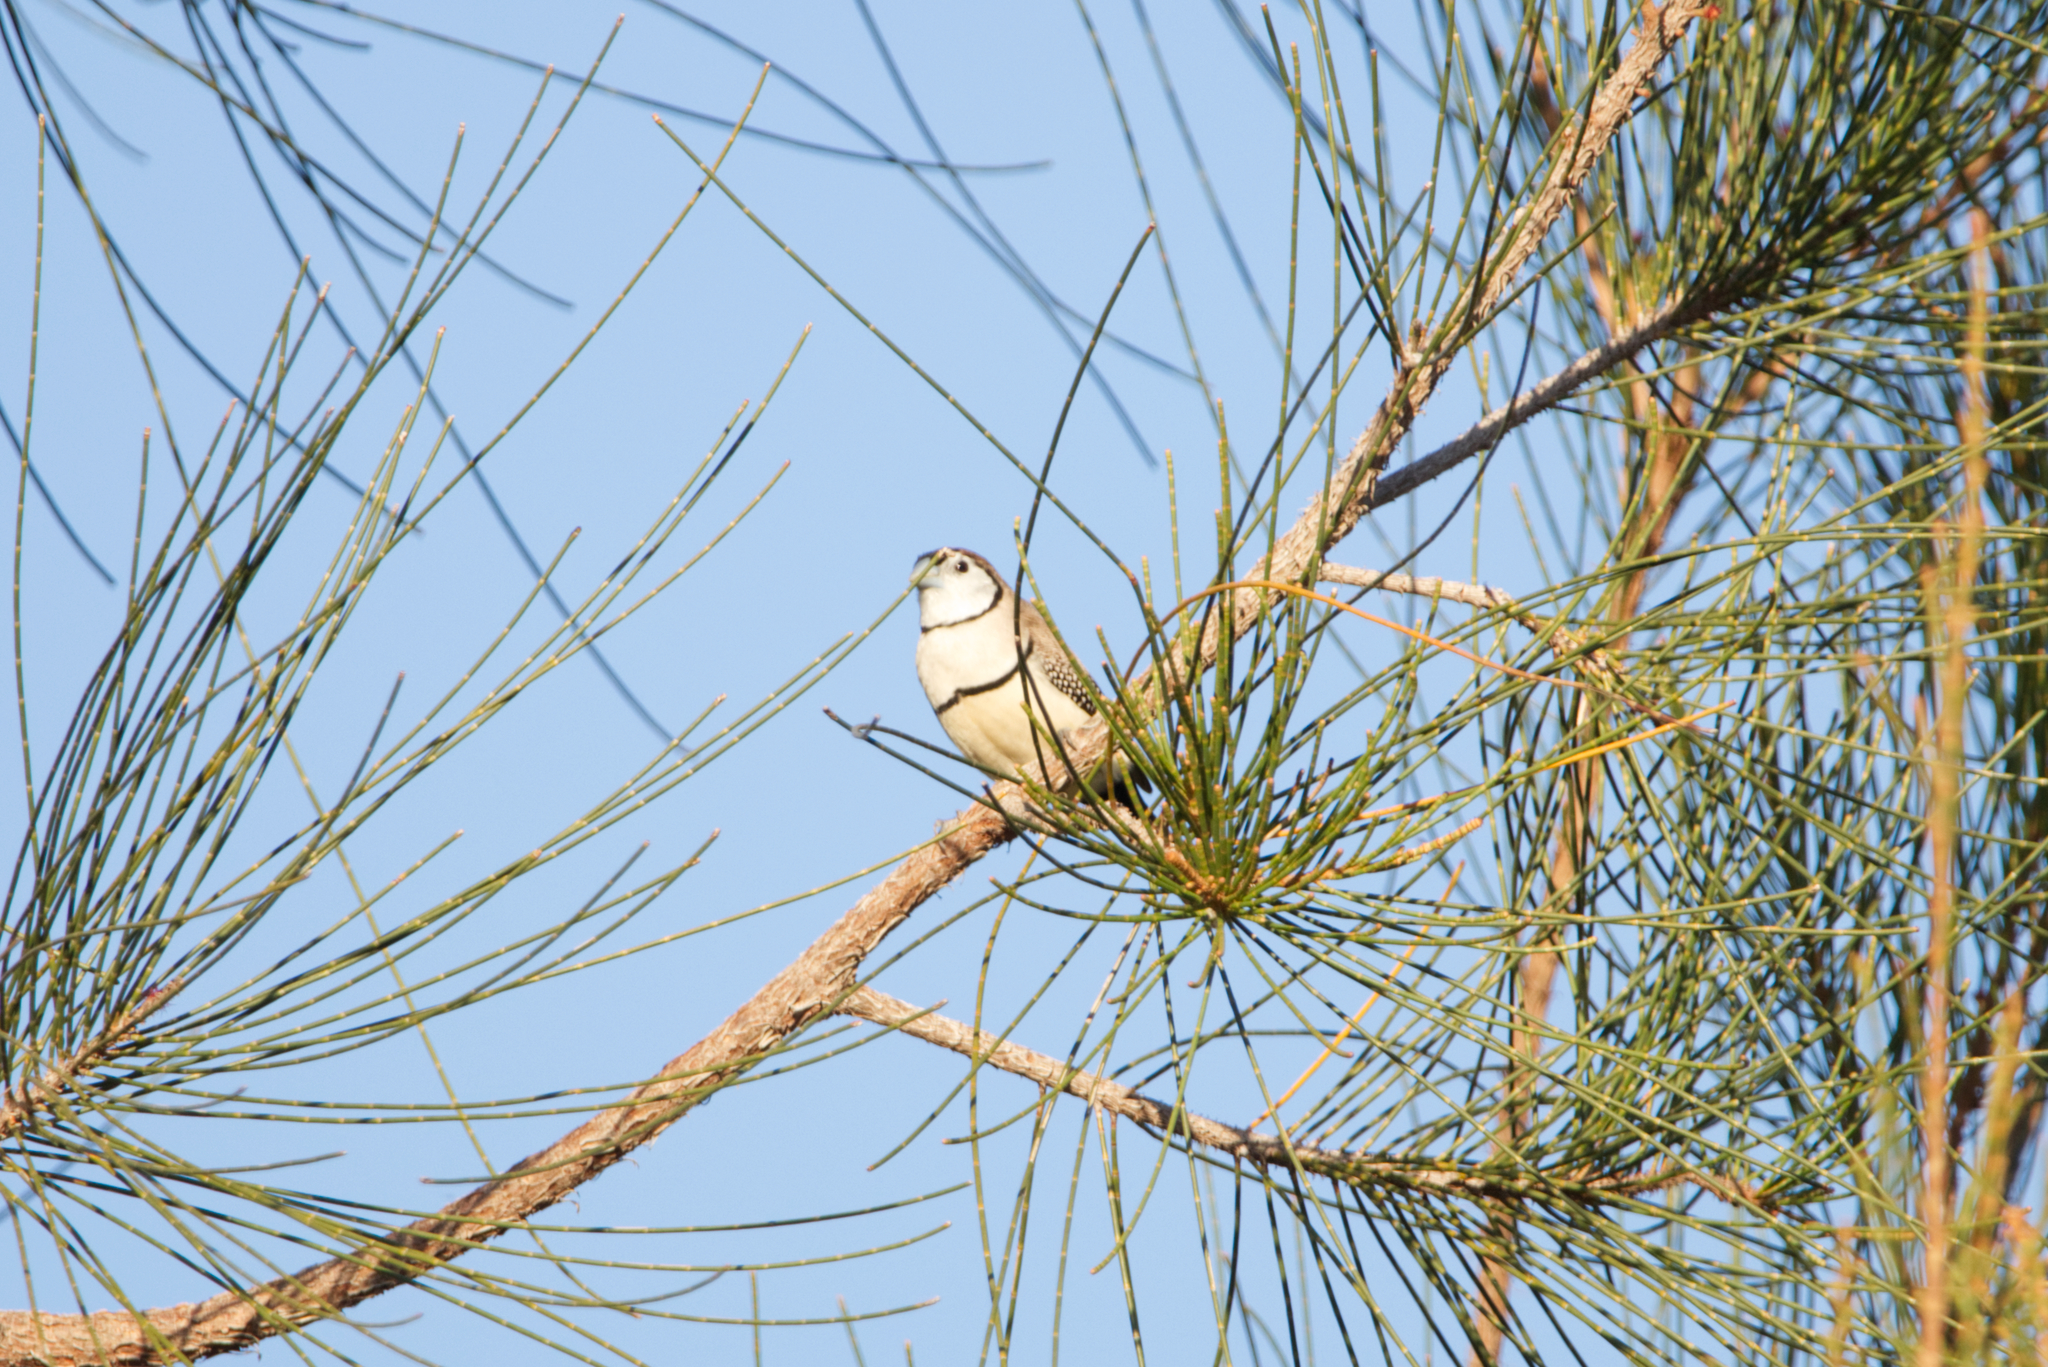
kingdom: Animalia
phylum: Chordata
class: Aves
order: Passeriformes
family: Estrildidae
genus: Taeniopygia
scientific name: Taeniopygia bichenovii
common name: Double-barred finch
